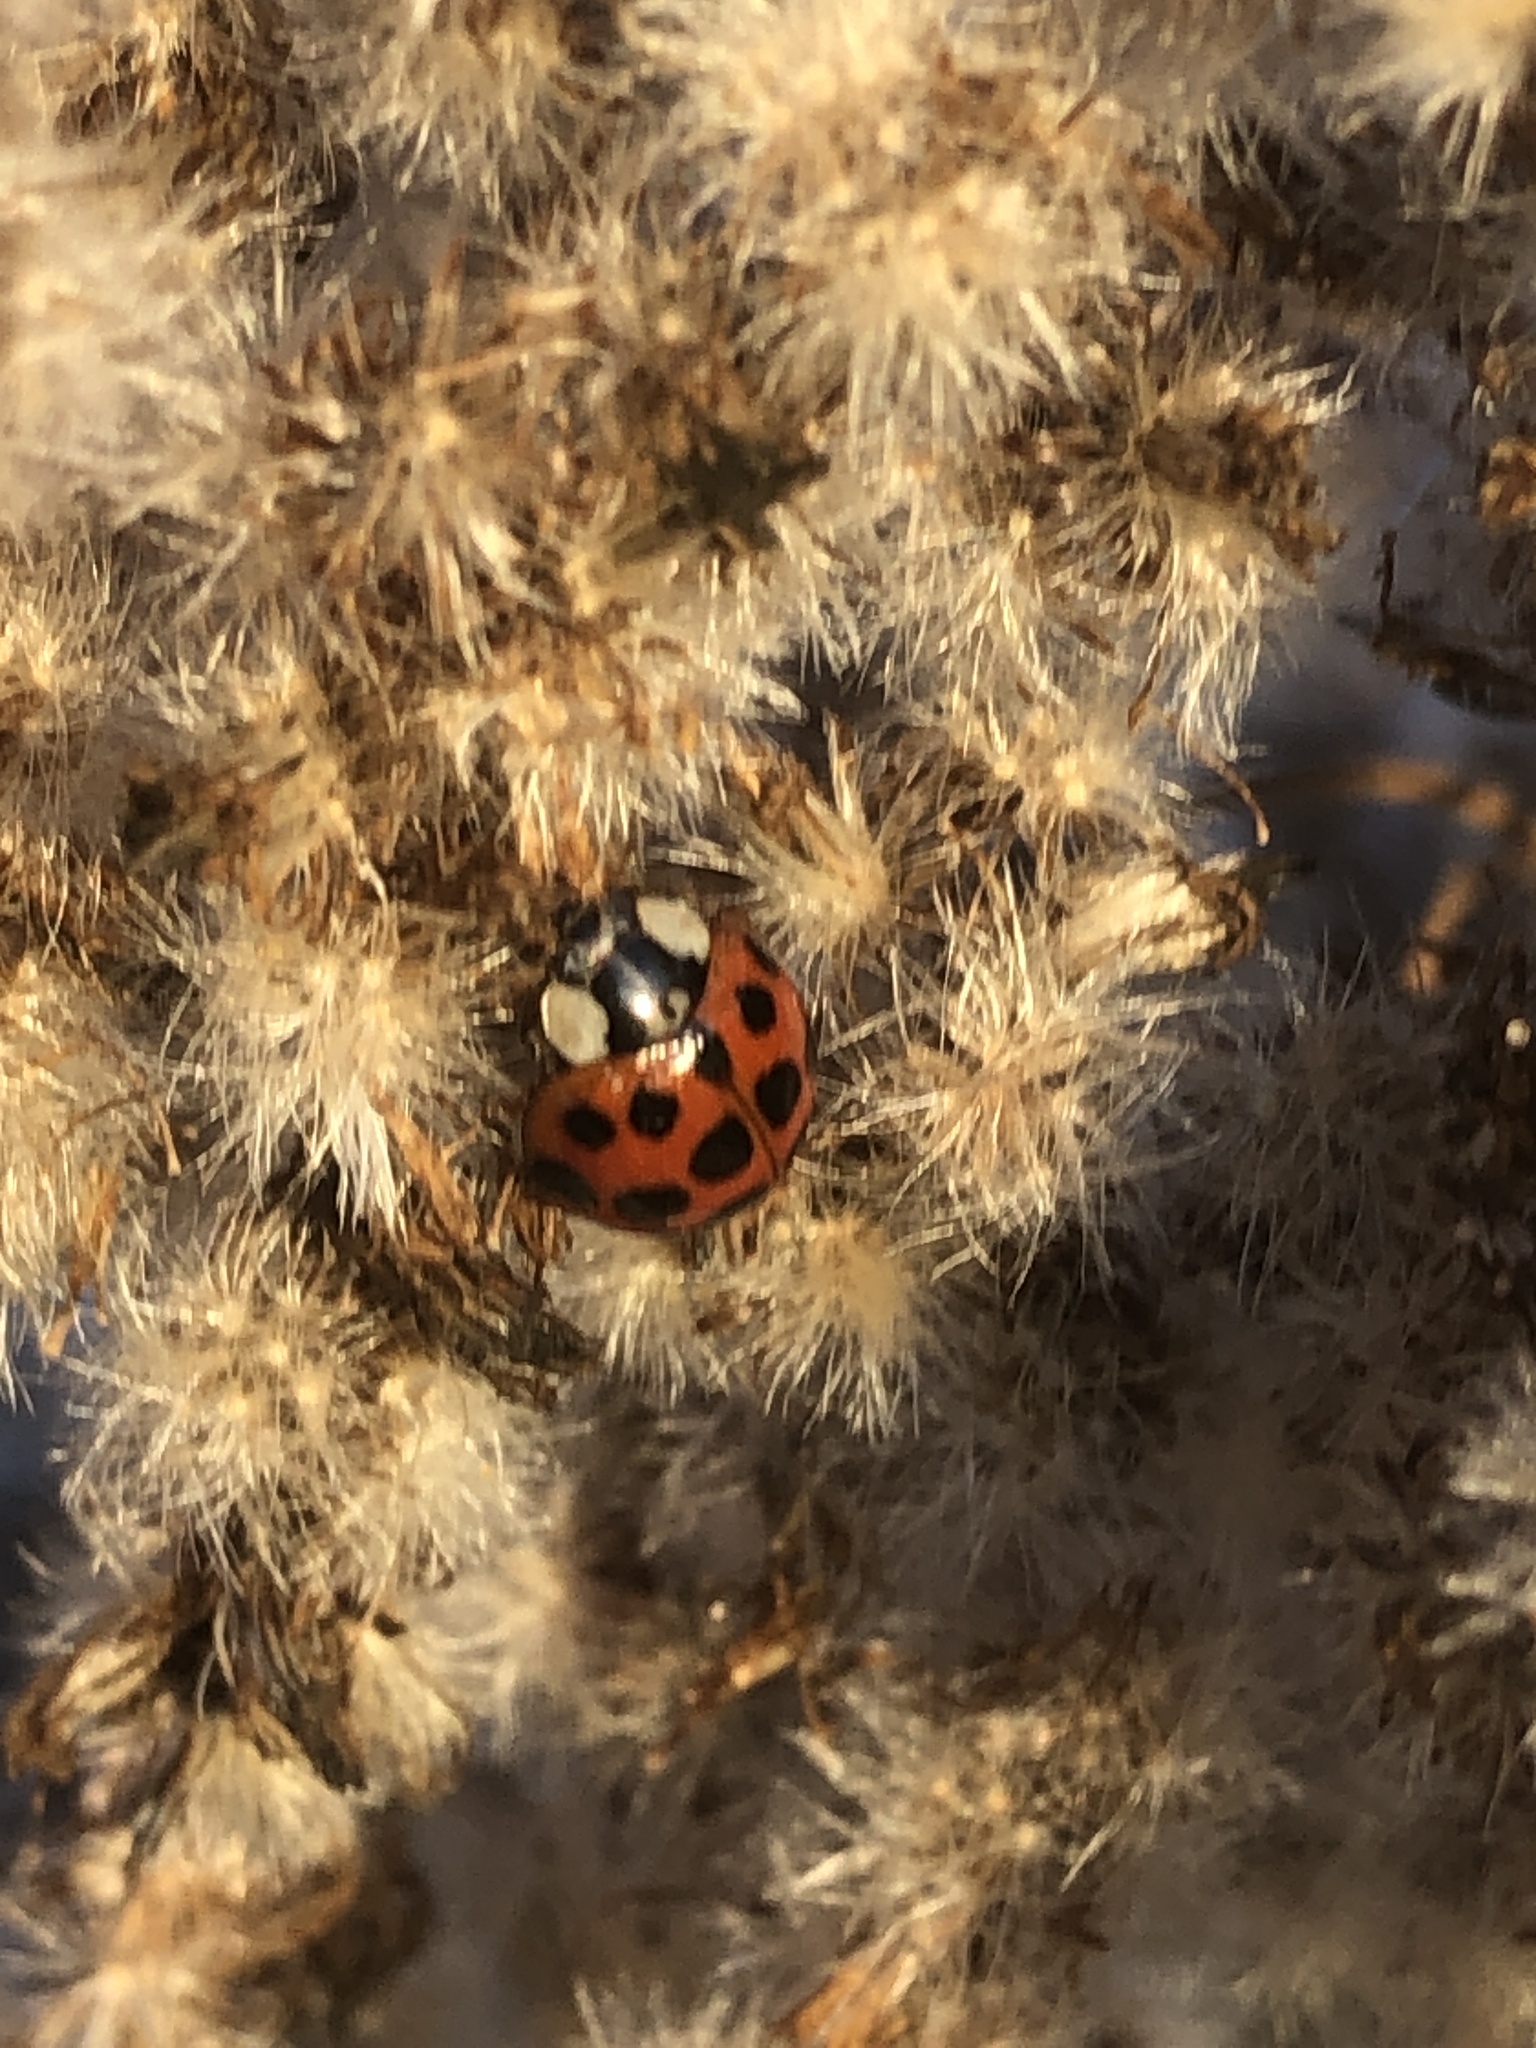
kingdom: Animalia
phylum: Arthropoda
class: Insecta
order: Coleoptera
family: Coccinellidae
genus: Harmonia
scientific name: Harmonia axyridis
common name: Harlequin ladybird
